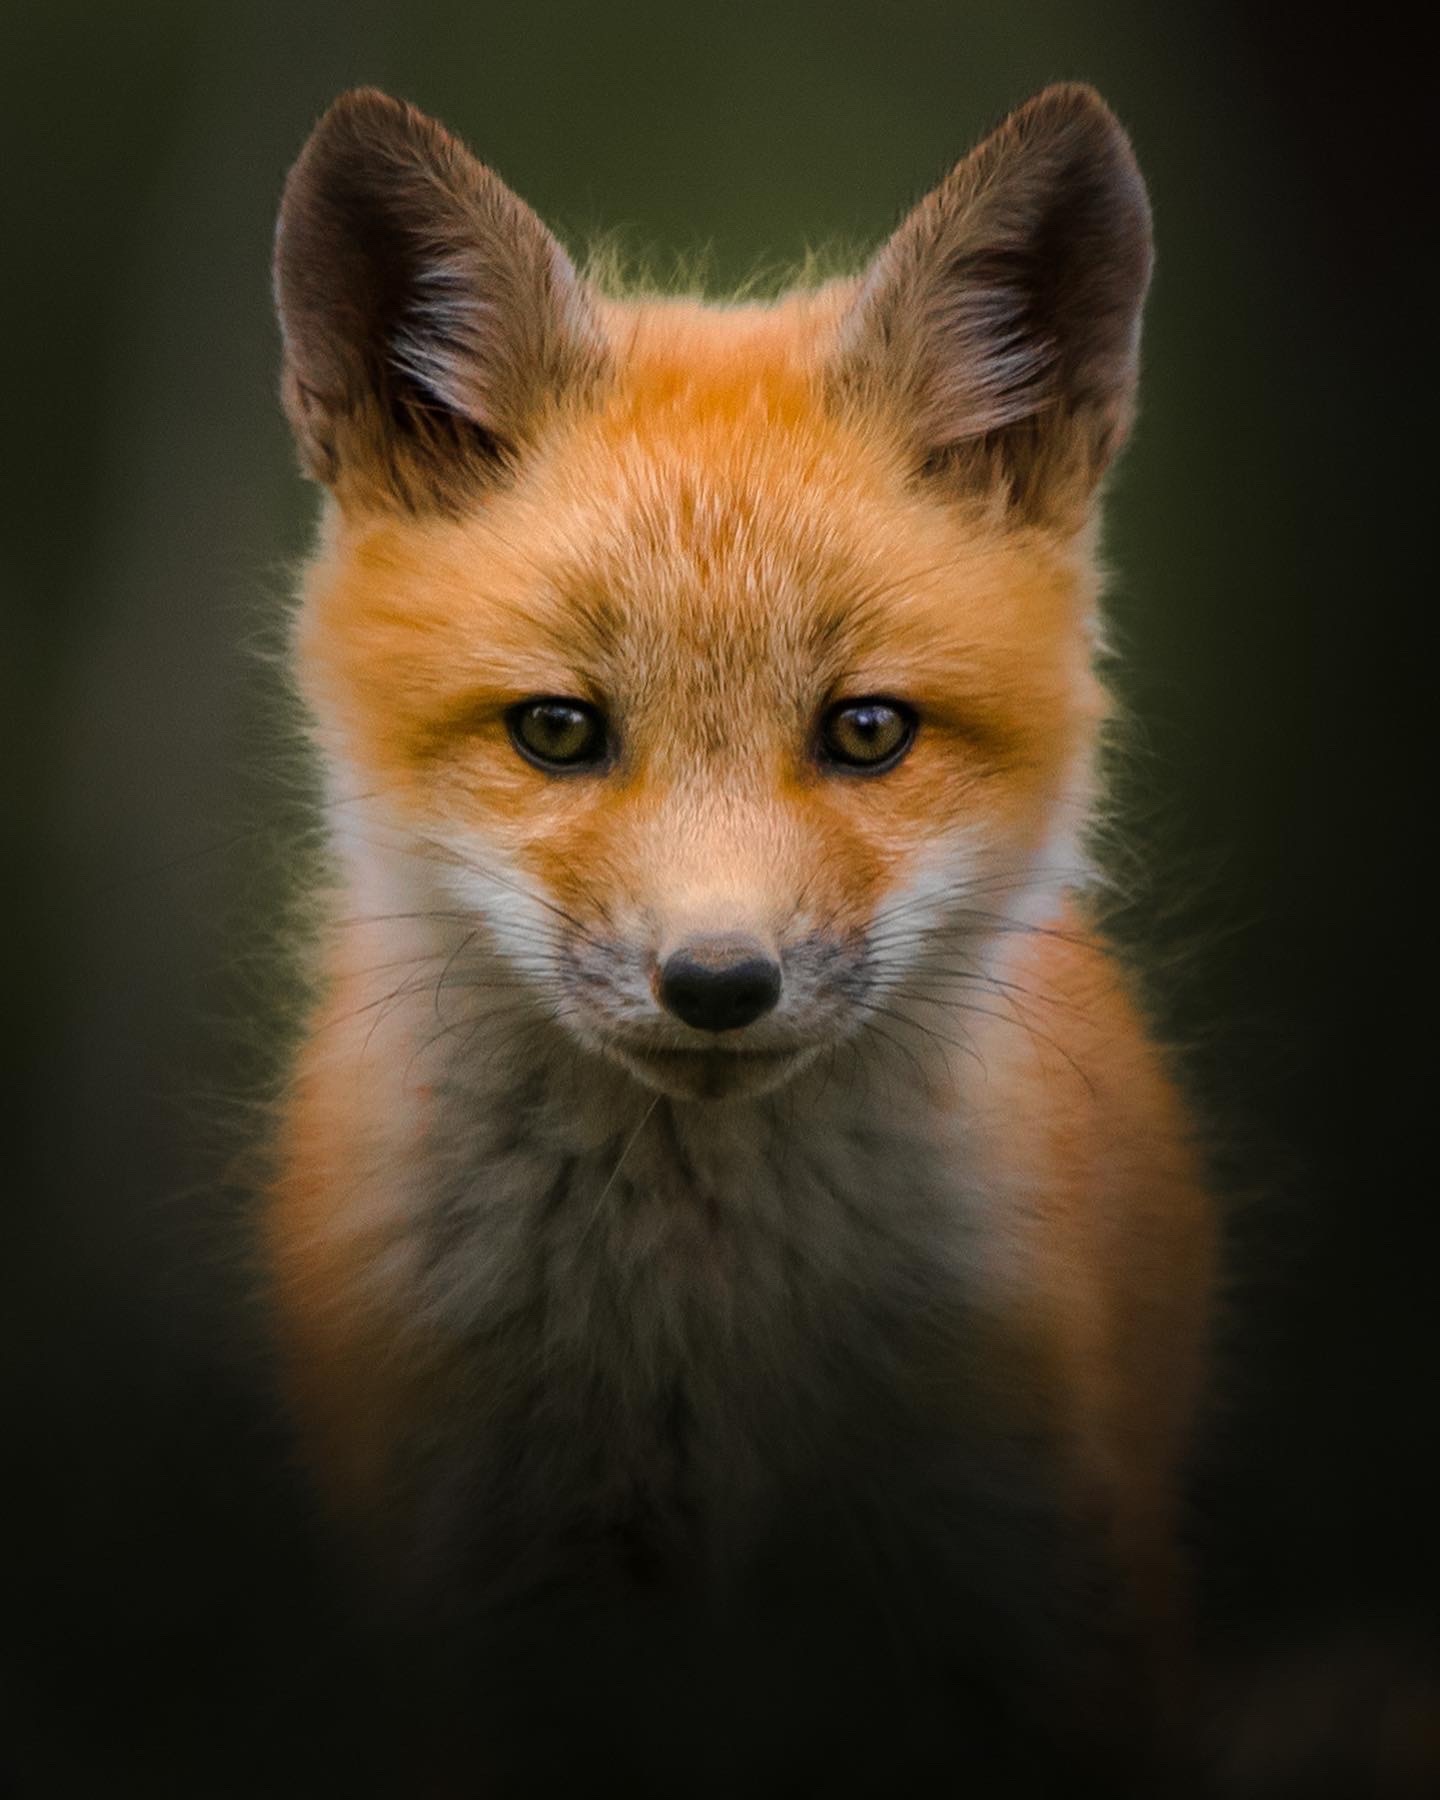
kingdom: Animalia
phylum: Chordata
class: Mammalia
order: Carnivora
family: Canidae
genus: Vulpes
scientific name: Vulpes vulpes
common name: Red fox
